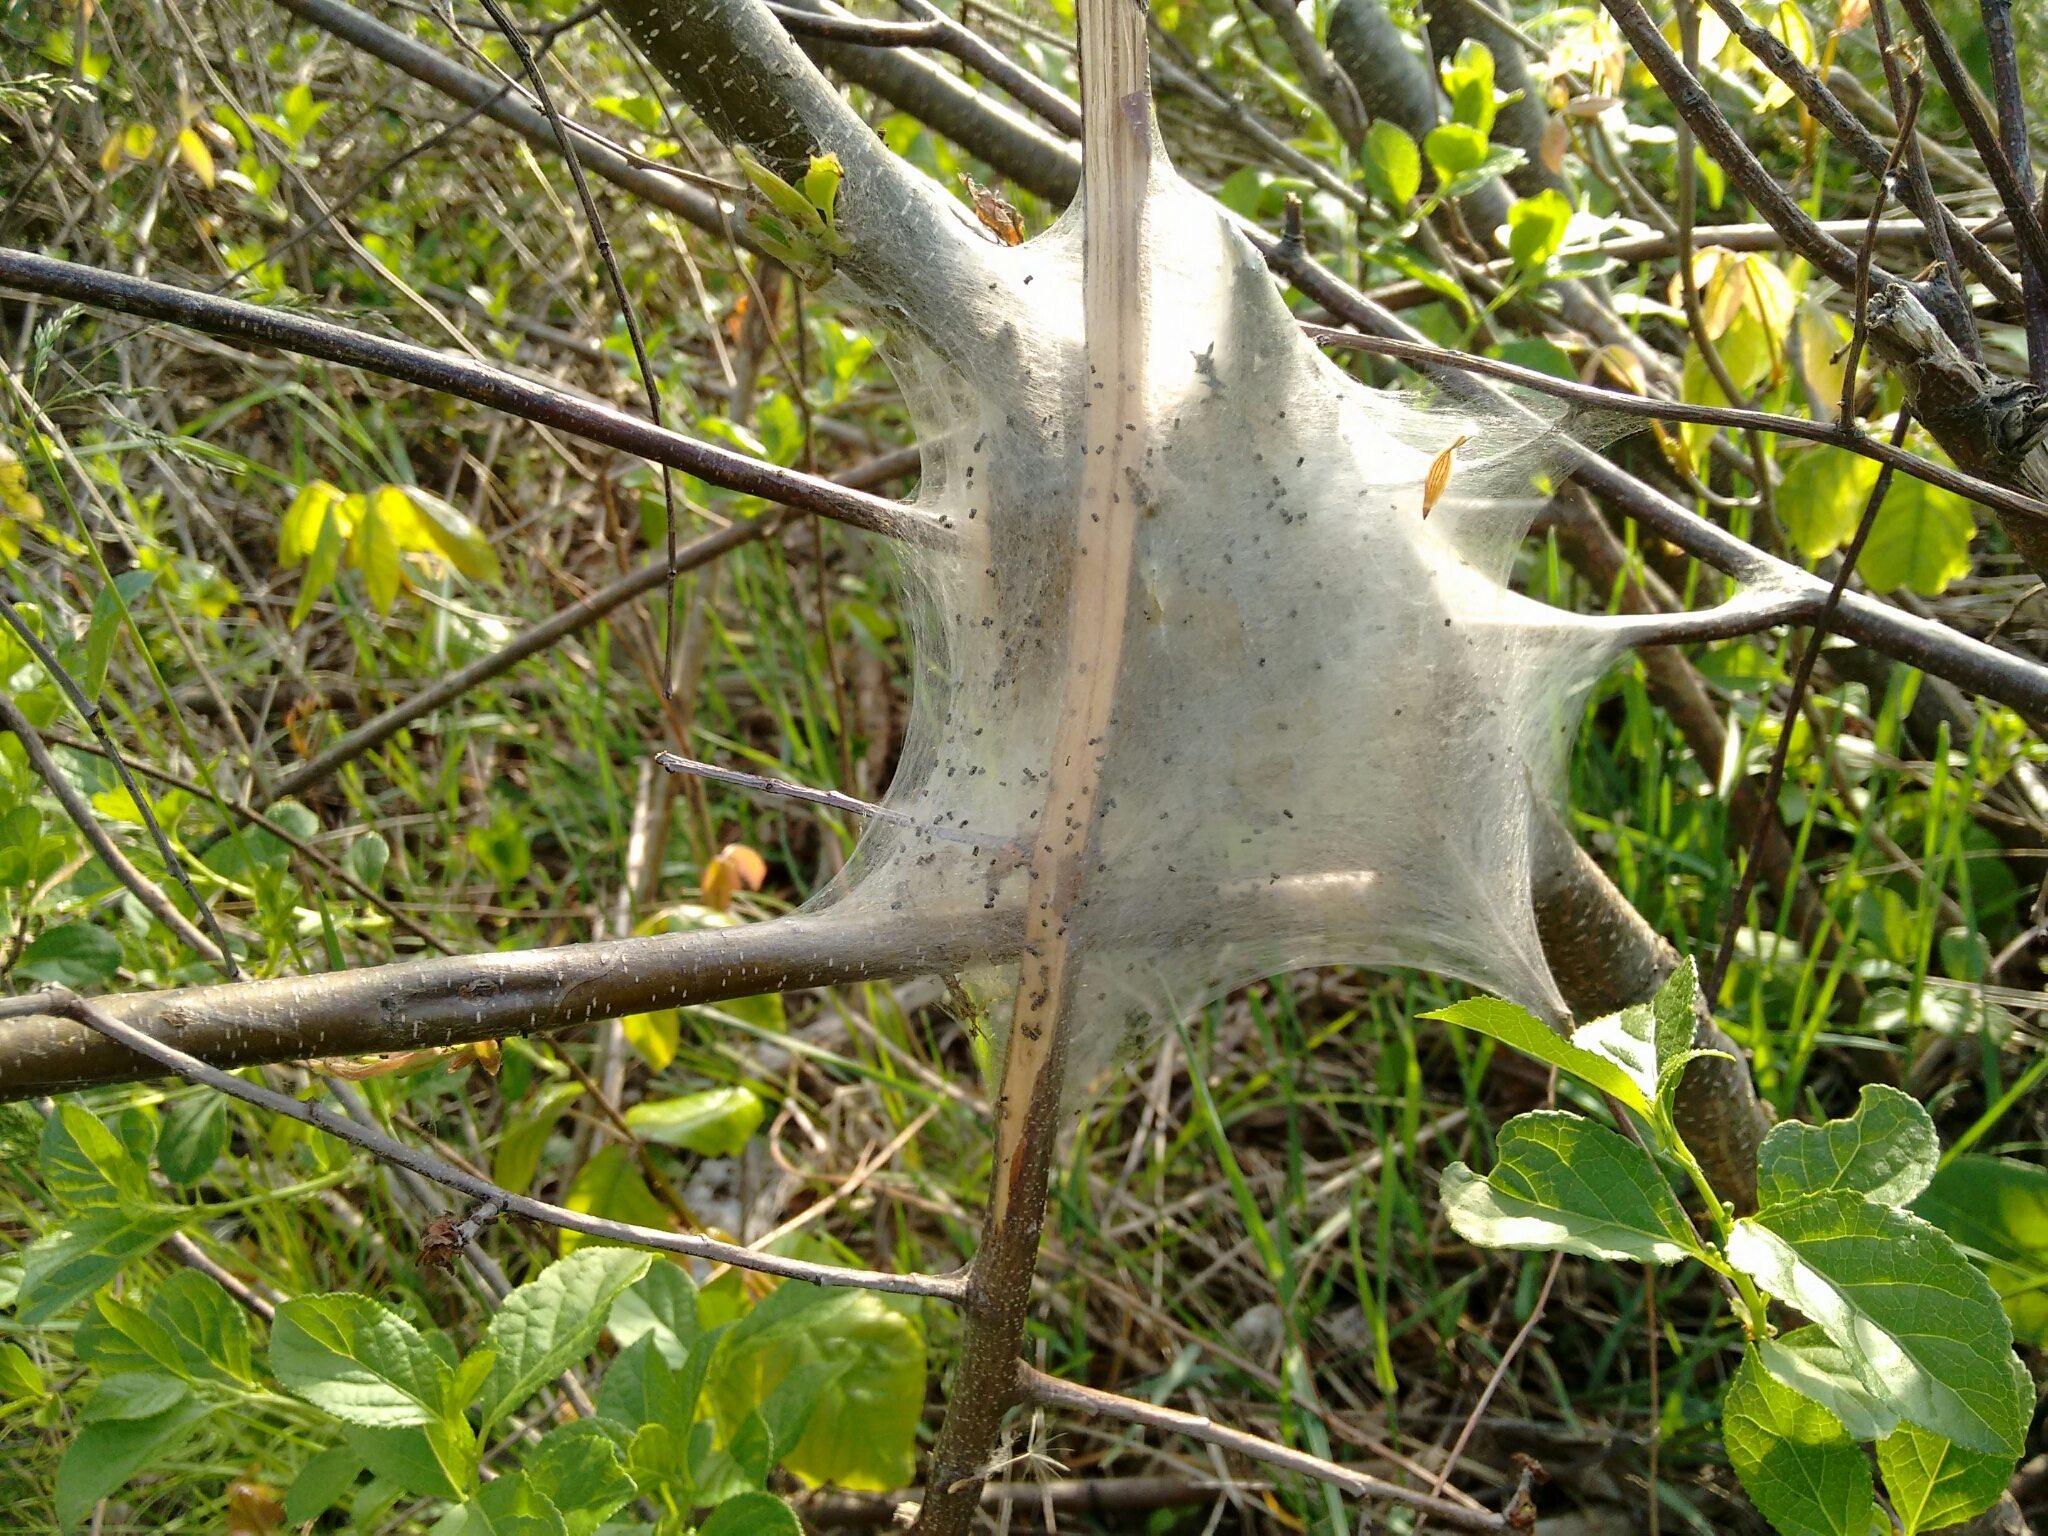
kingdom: Animalia
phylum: Arthropoda
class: Insecta
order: Lepidoptera
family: Lasiocampidae
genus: Malacosoma
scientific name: Malacosoma americana
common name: Eastern tent caterpillar moth
